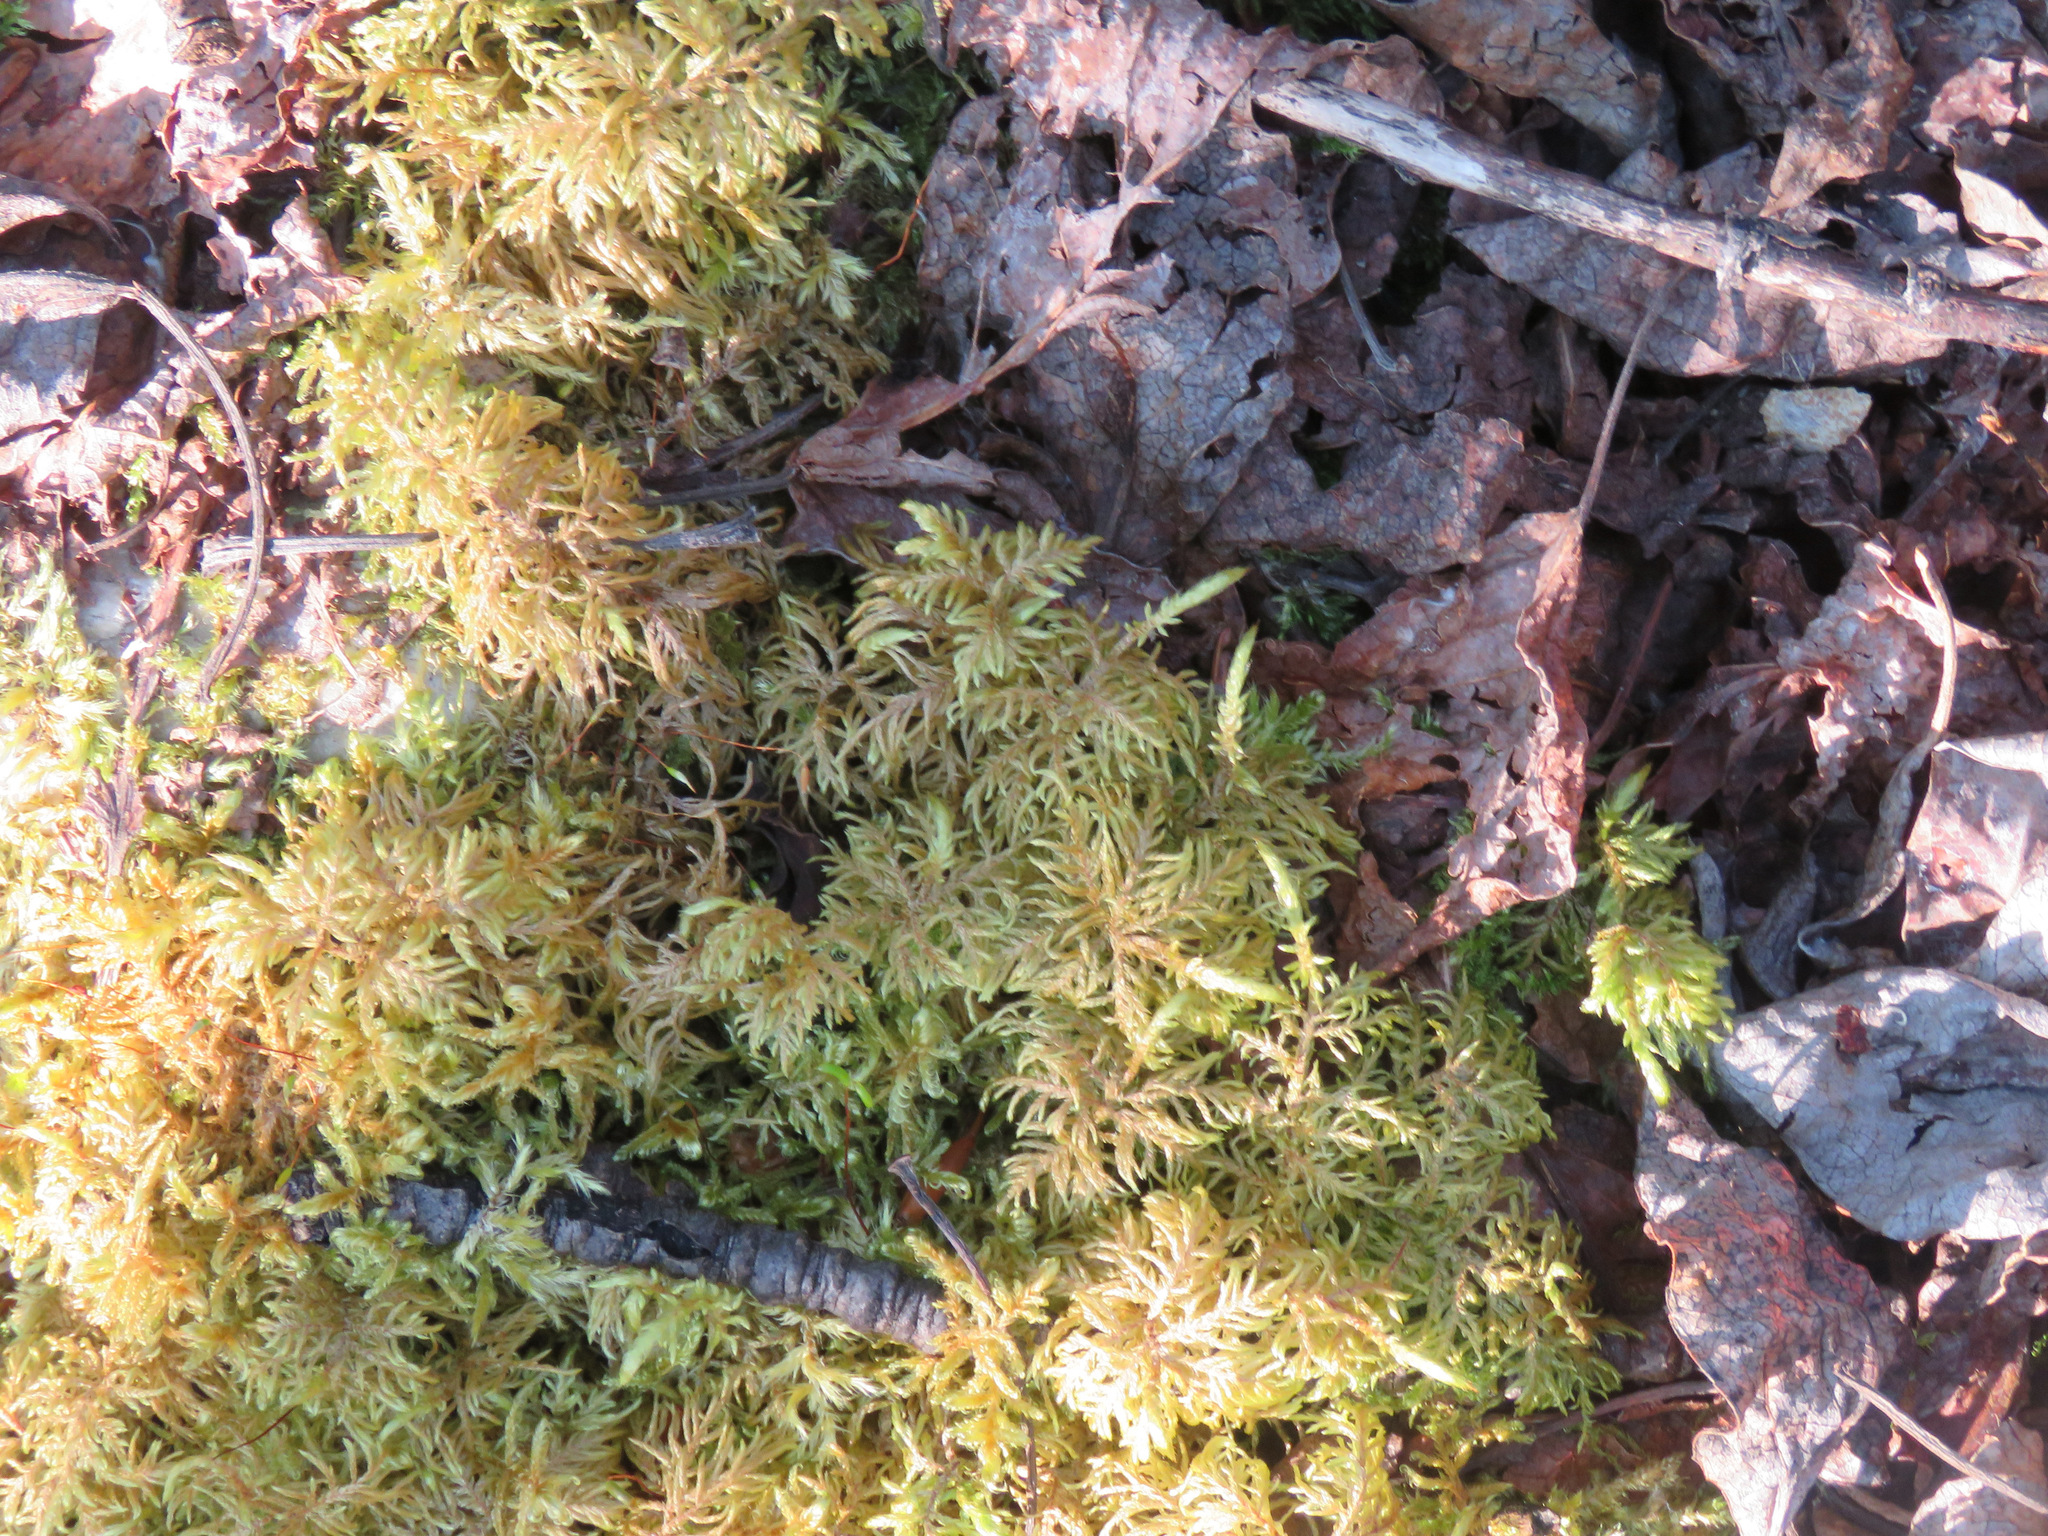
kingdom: Plantae
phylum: Bryophyta
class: Bryopsida
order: Hypnales
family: Hylocomiaceae
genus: Hylocomium
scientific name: Hylocomium splendens
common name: Stairstep moss
